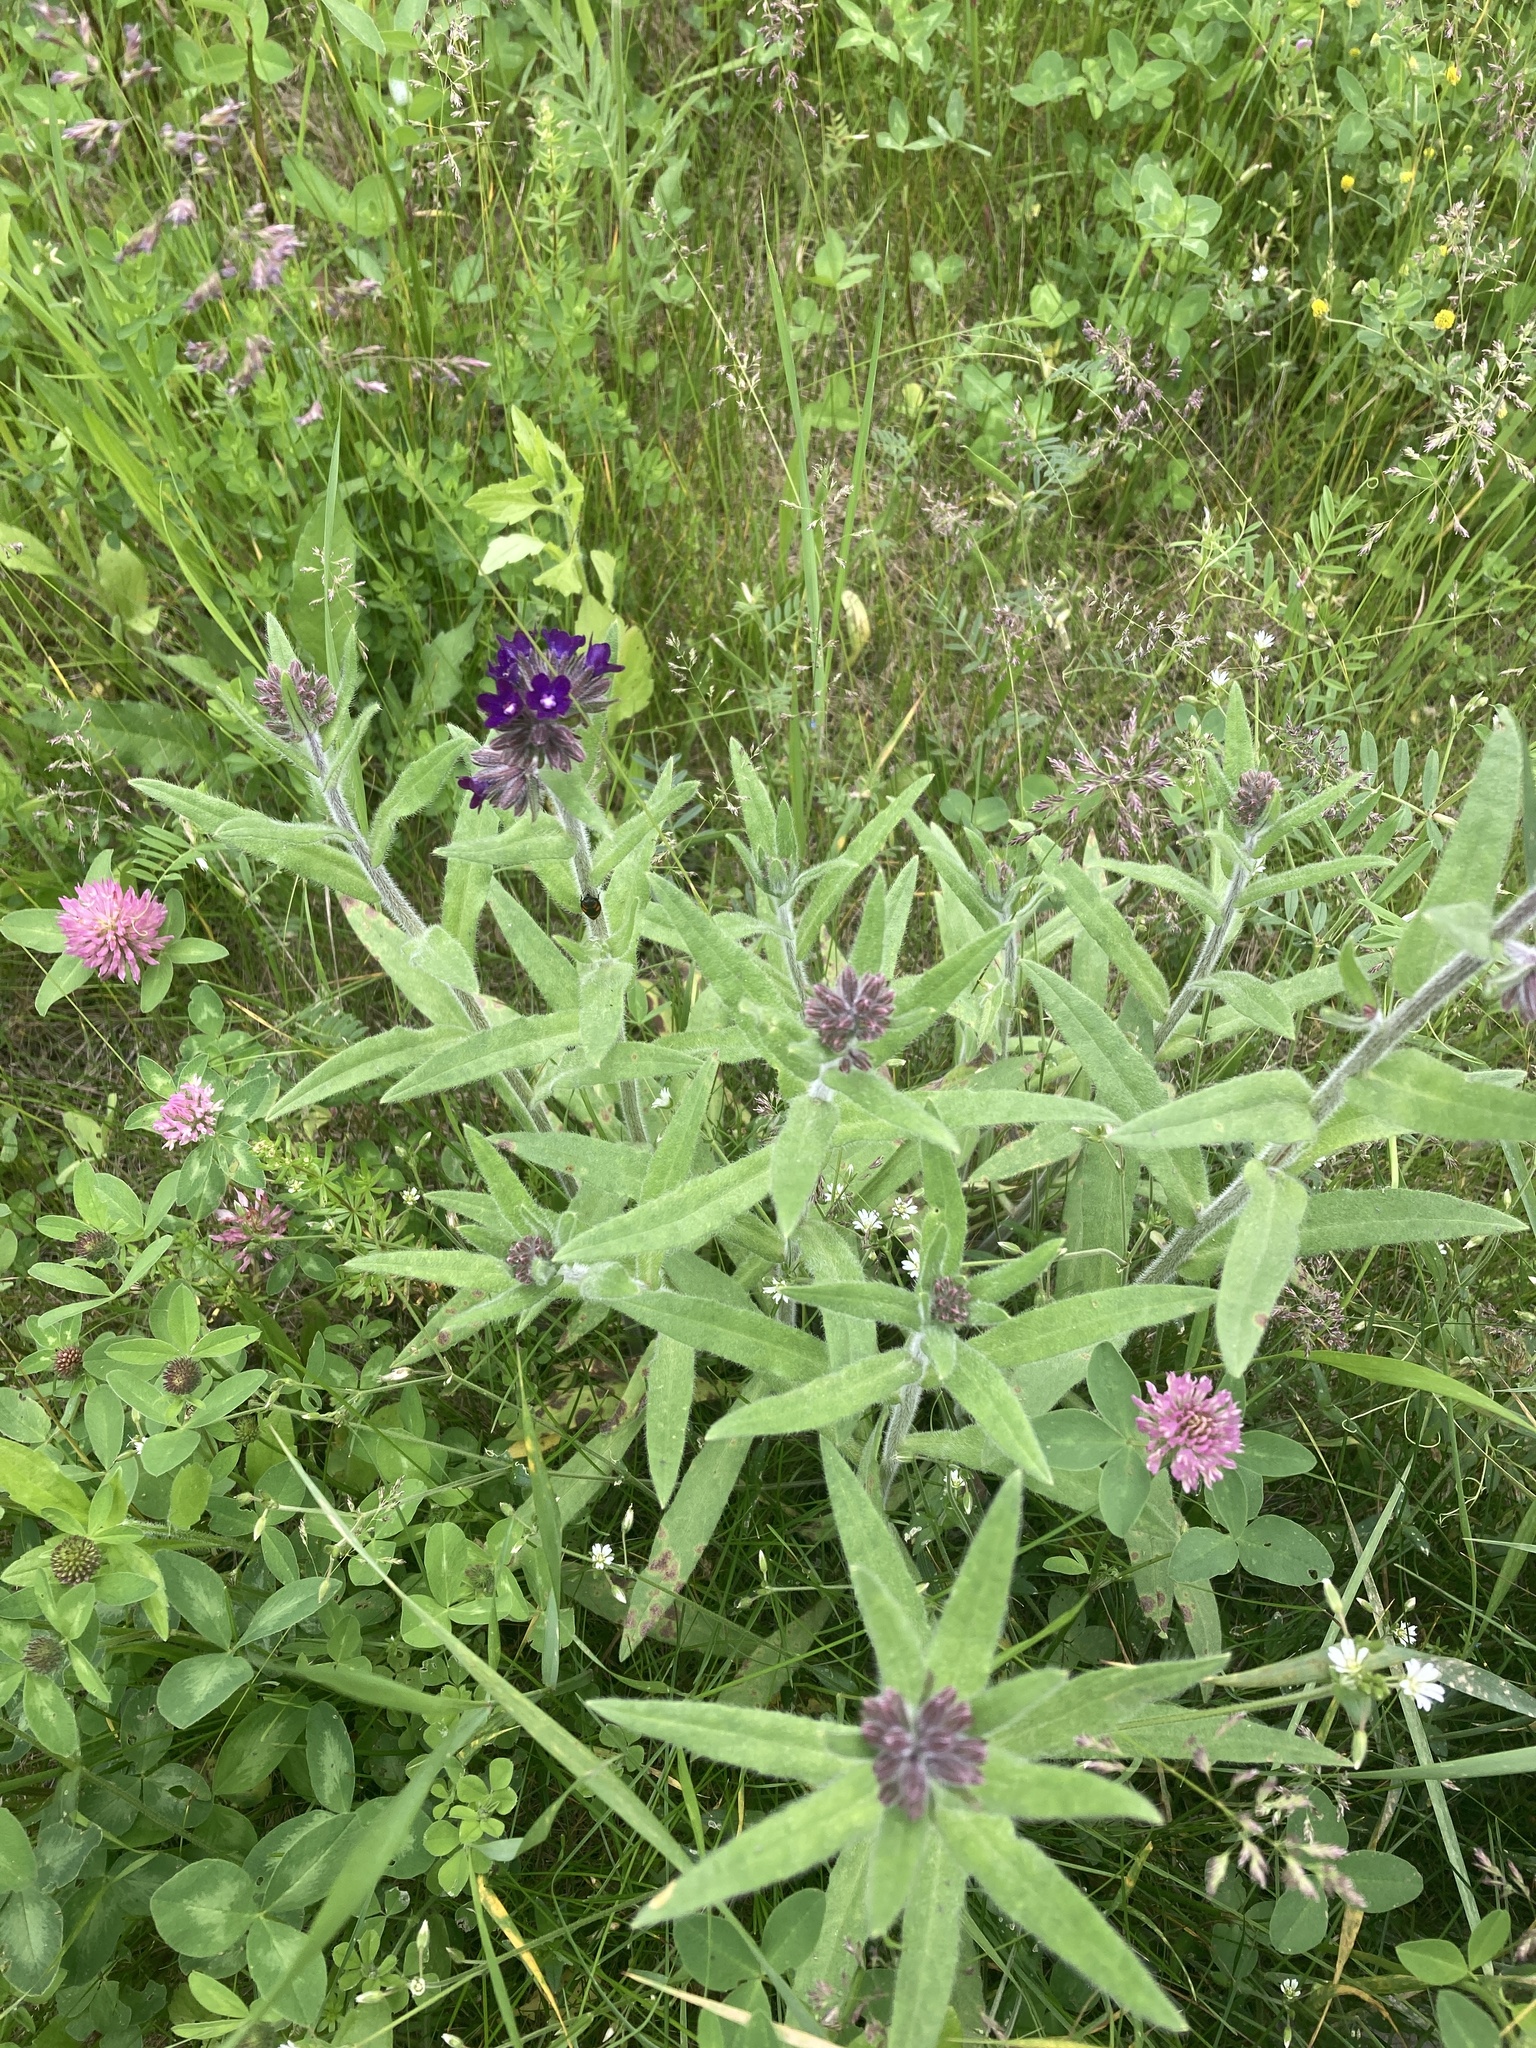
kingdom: Plantae
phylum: Tracheophyta
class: Magnoliopsida
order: Boraginales
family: Boraginaceae
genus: Anchusa
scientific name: Anchusa officinalis
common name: Alkanet
